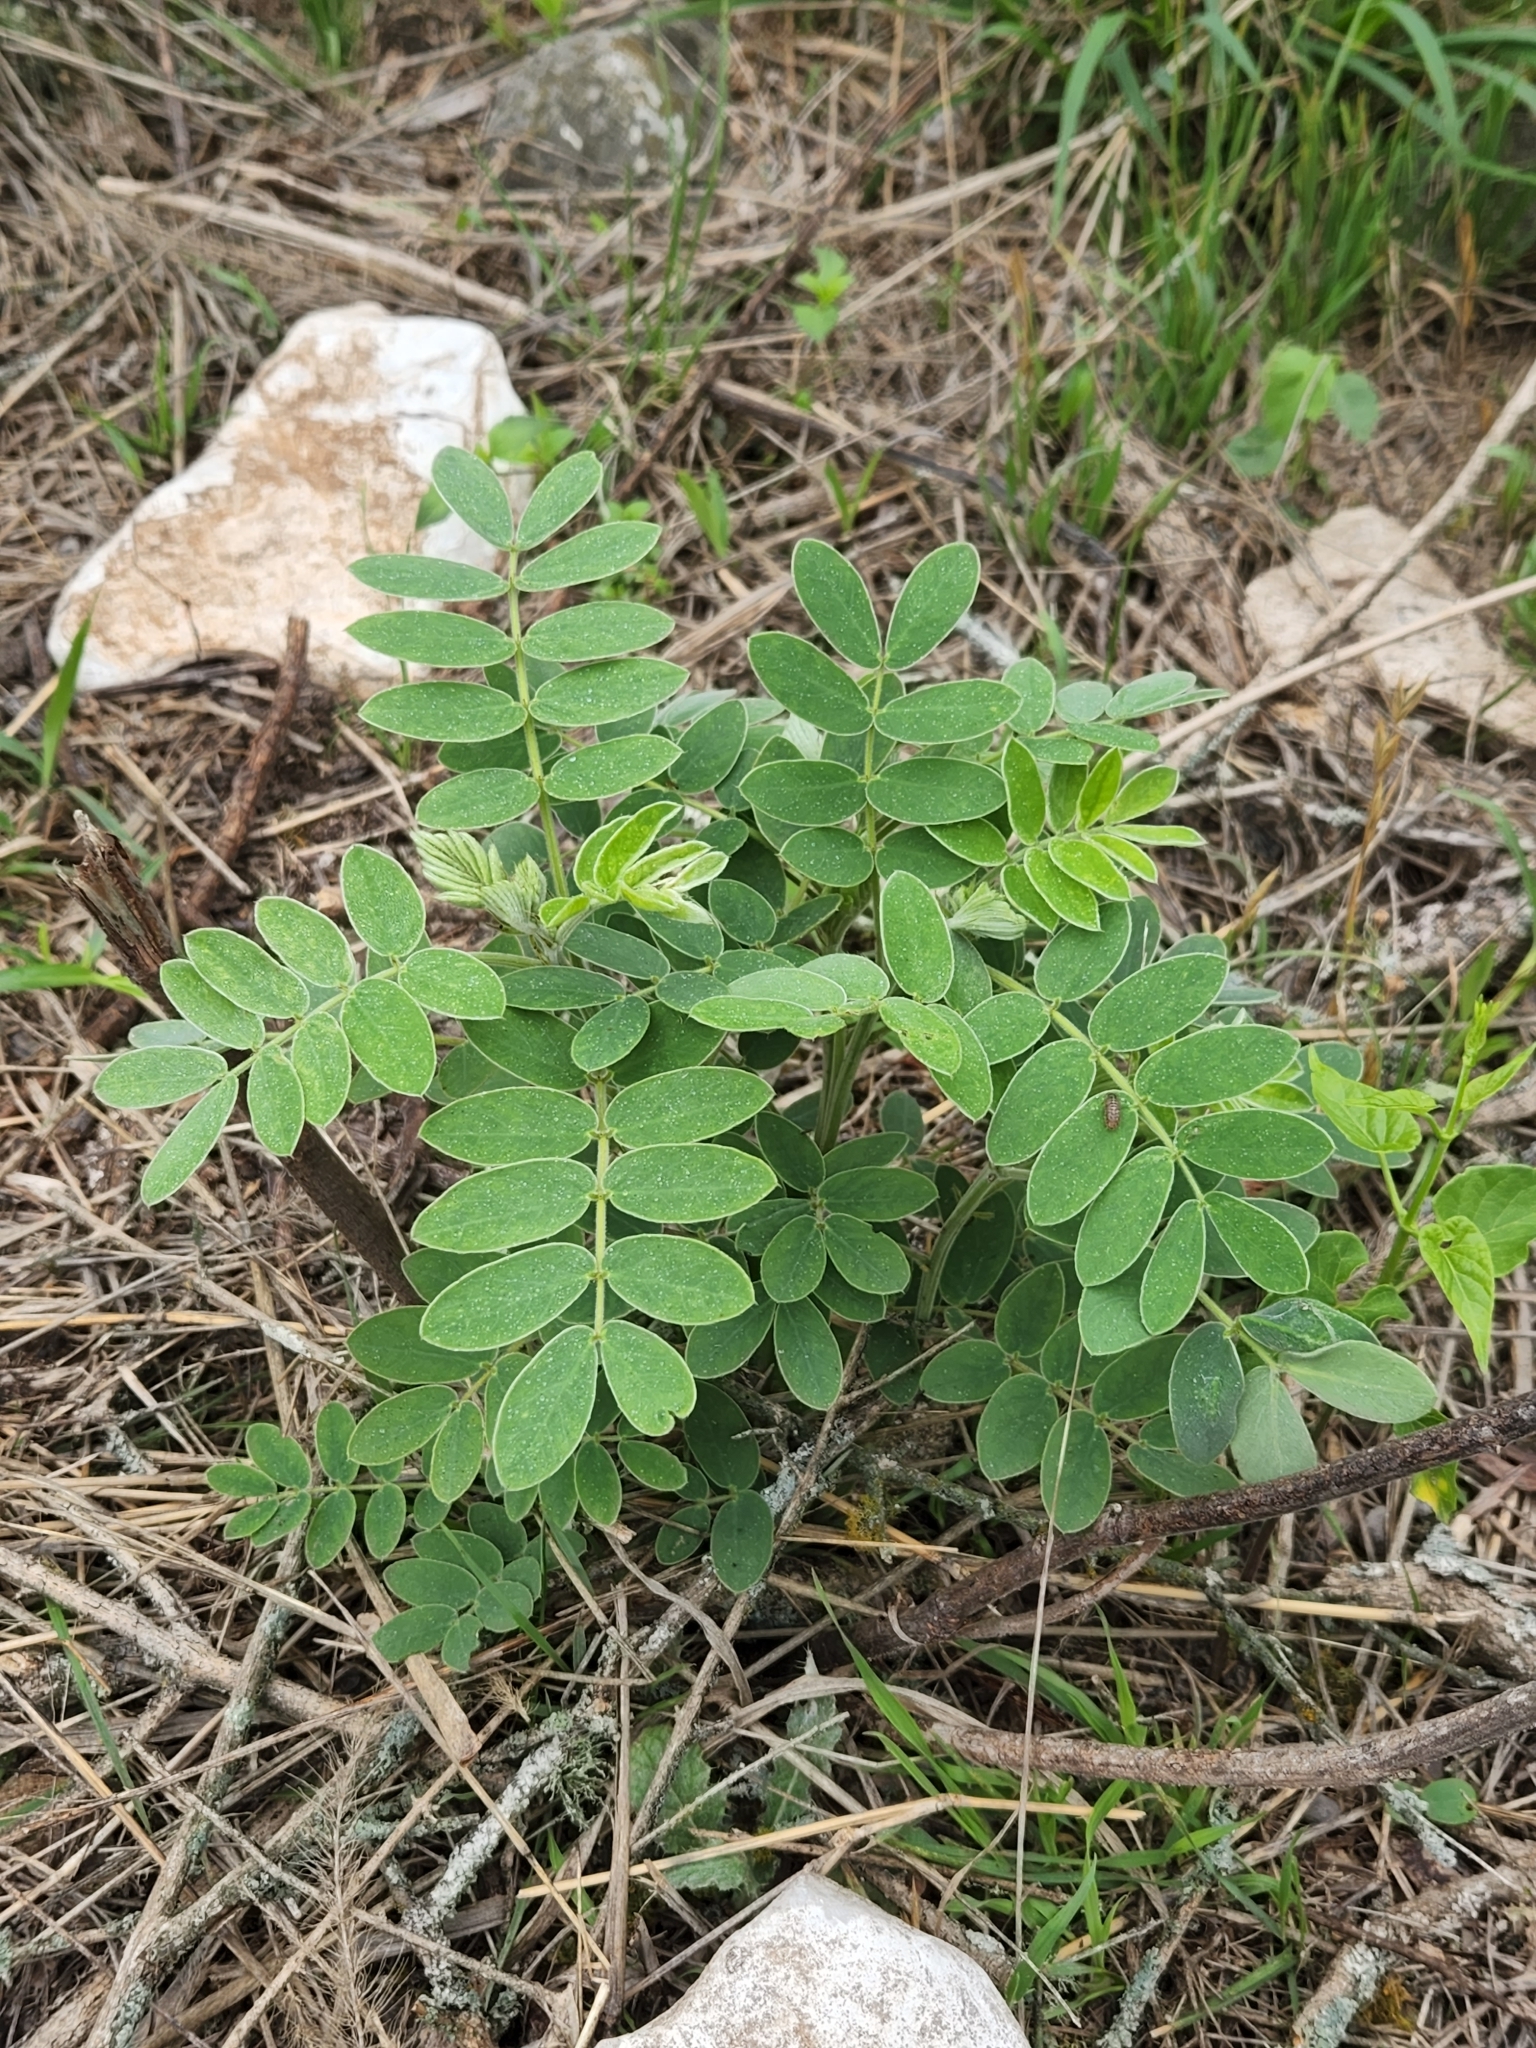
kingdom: Plantae
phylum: Tracheophyta
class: Magnoliopsida
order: Fabales
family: Fabaceae
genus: Senna
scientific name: Senna lindheimeriana
